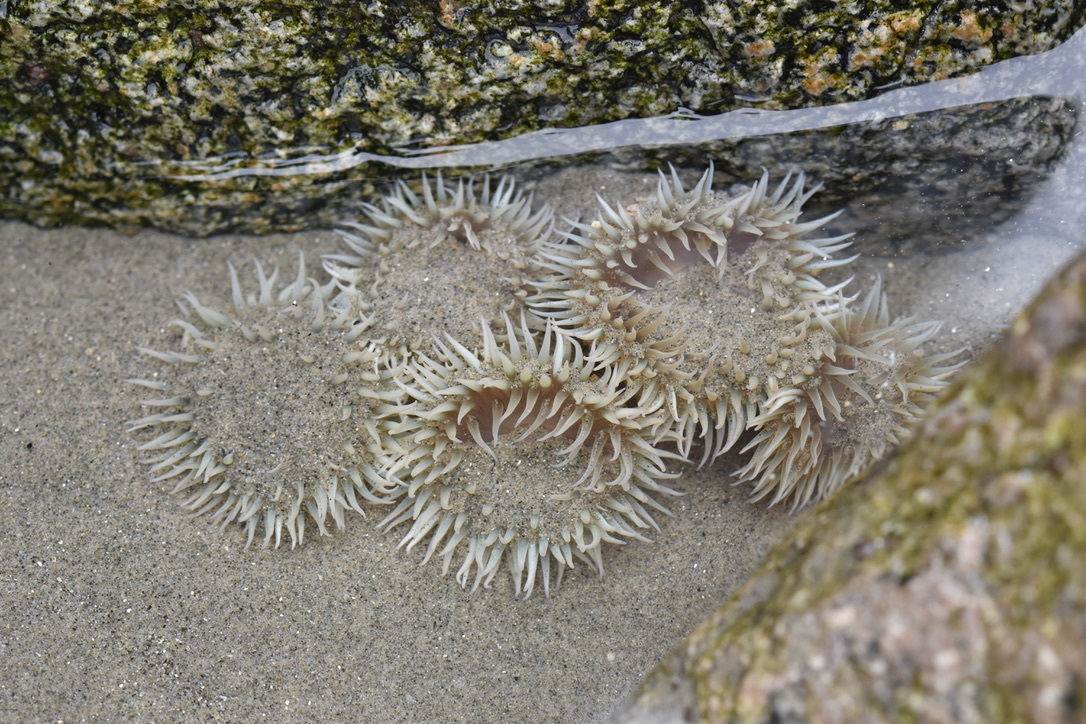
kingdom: Animalia
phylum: Cnidaria
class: Anthozoa
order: Actiniaria
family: Actiniidae
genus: Anthopleura
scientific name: Anthopleura elegantissima
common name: Clonal anemone
